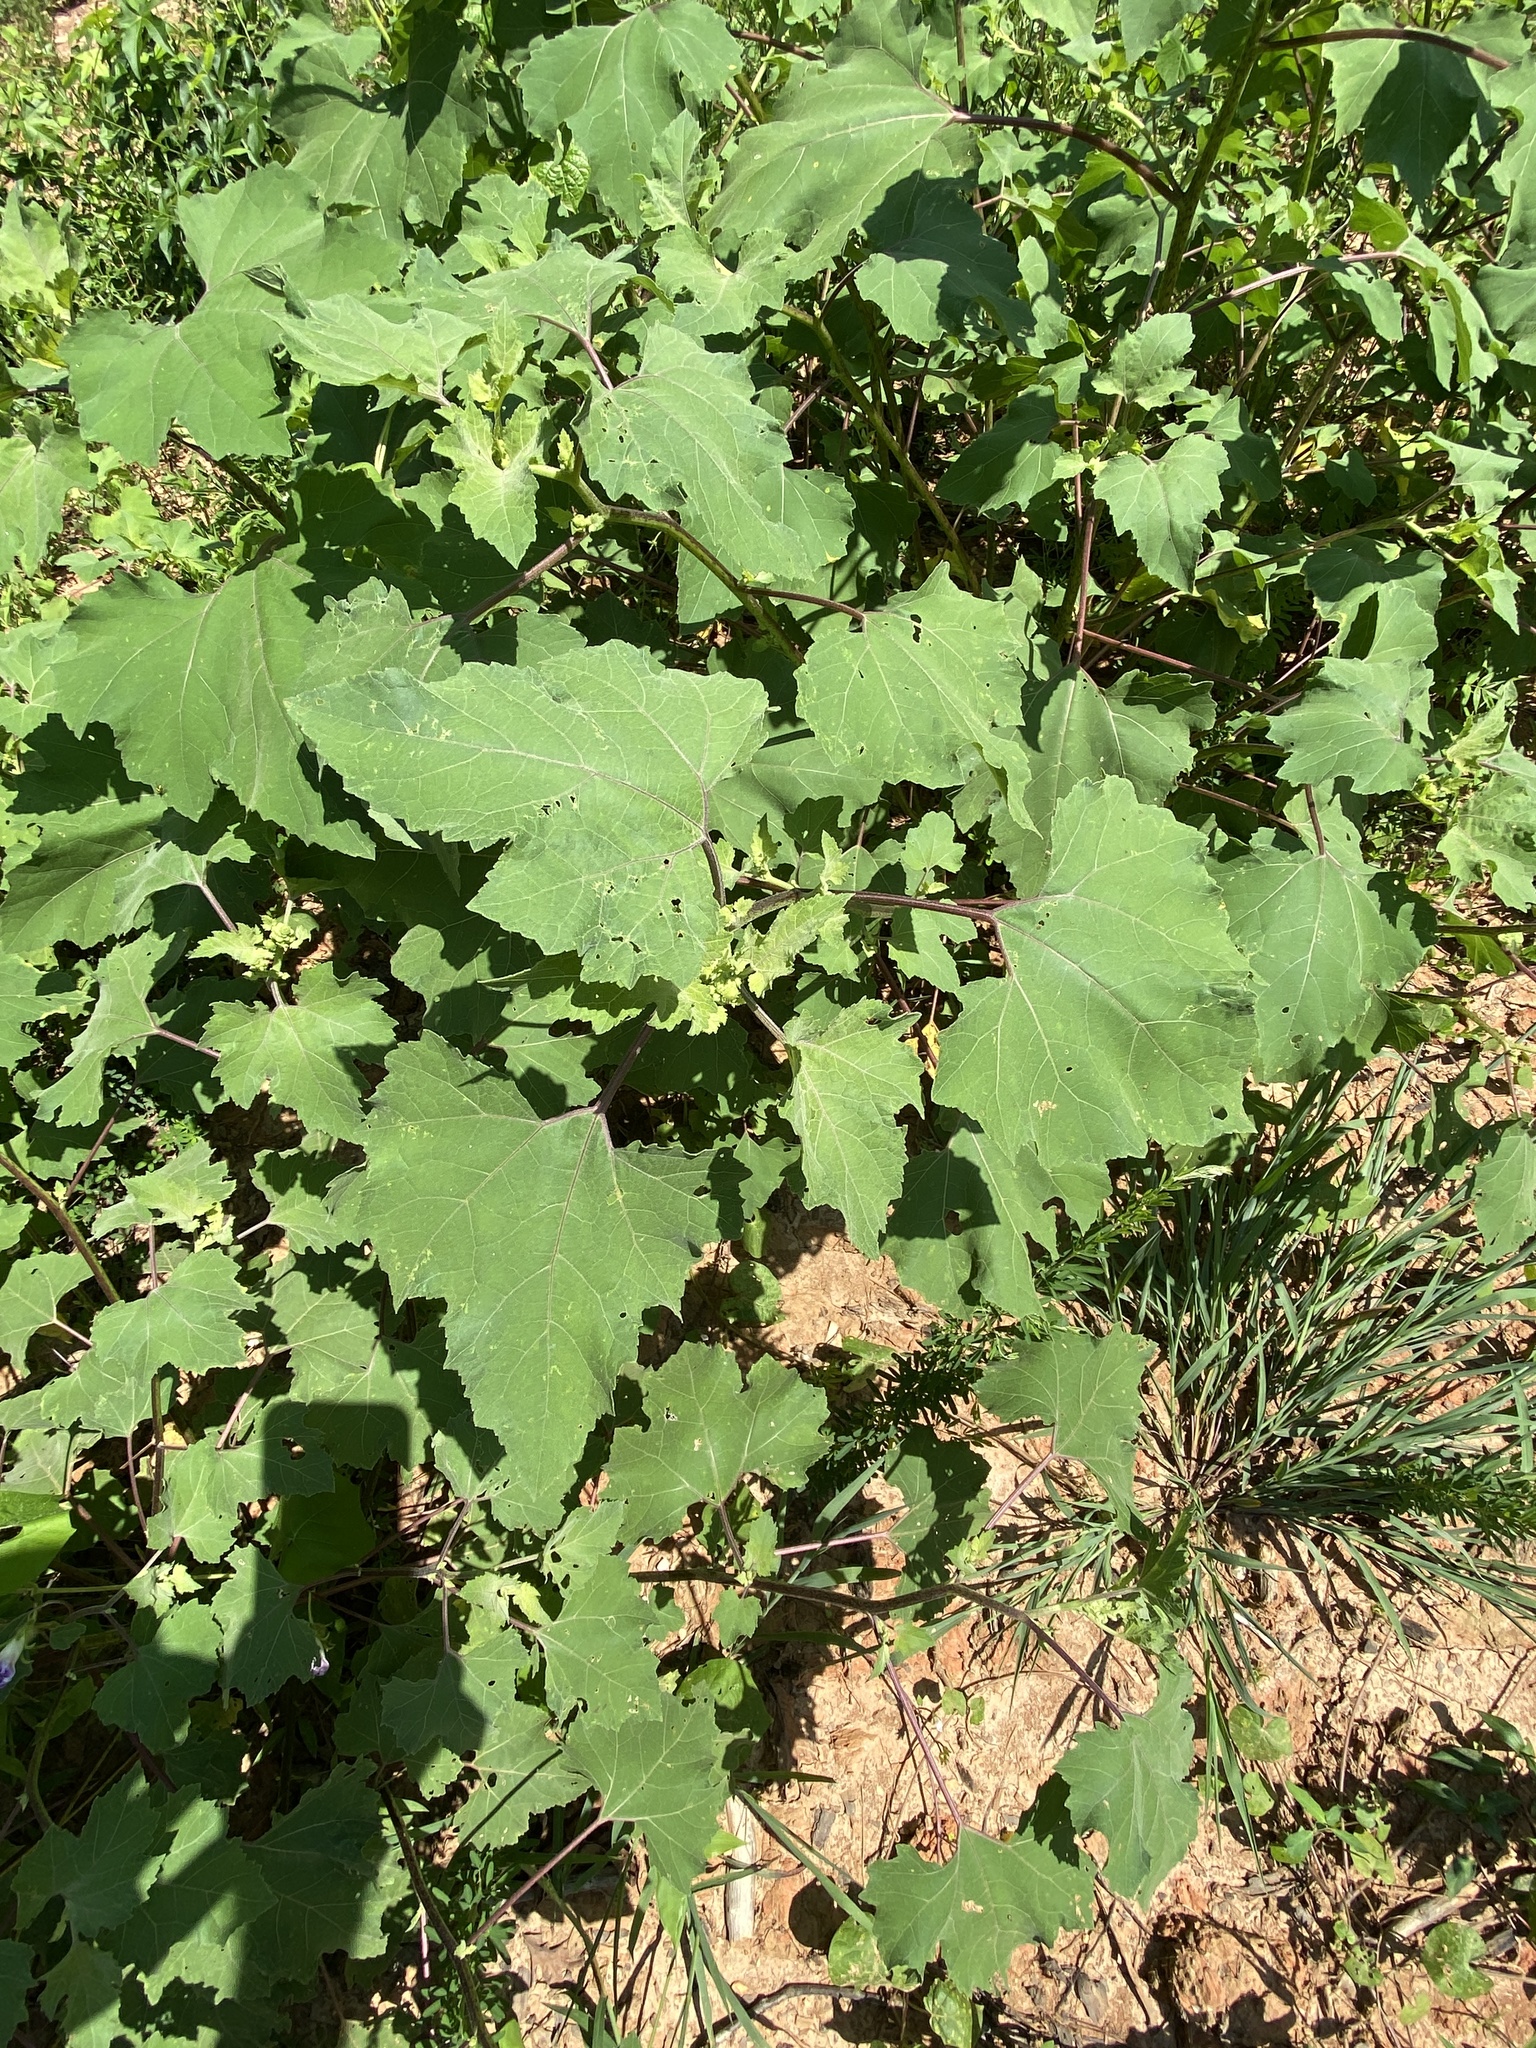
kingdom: Plantae
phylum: Tracheophyta
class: Magnoliopsida
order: Asterales
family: Asteraceae
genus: Xanthium
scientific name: Xanthium strumarium
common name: Rough cocklebur
